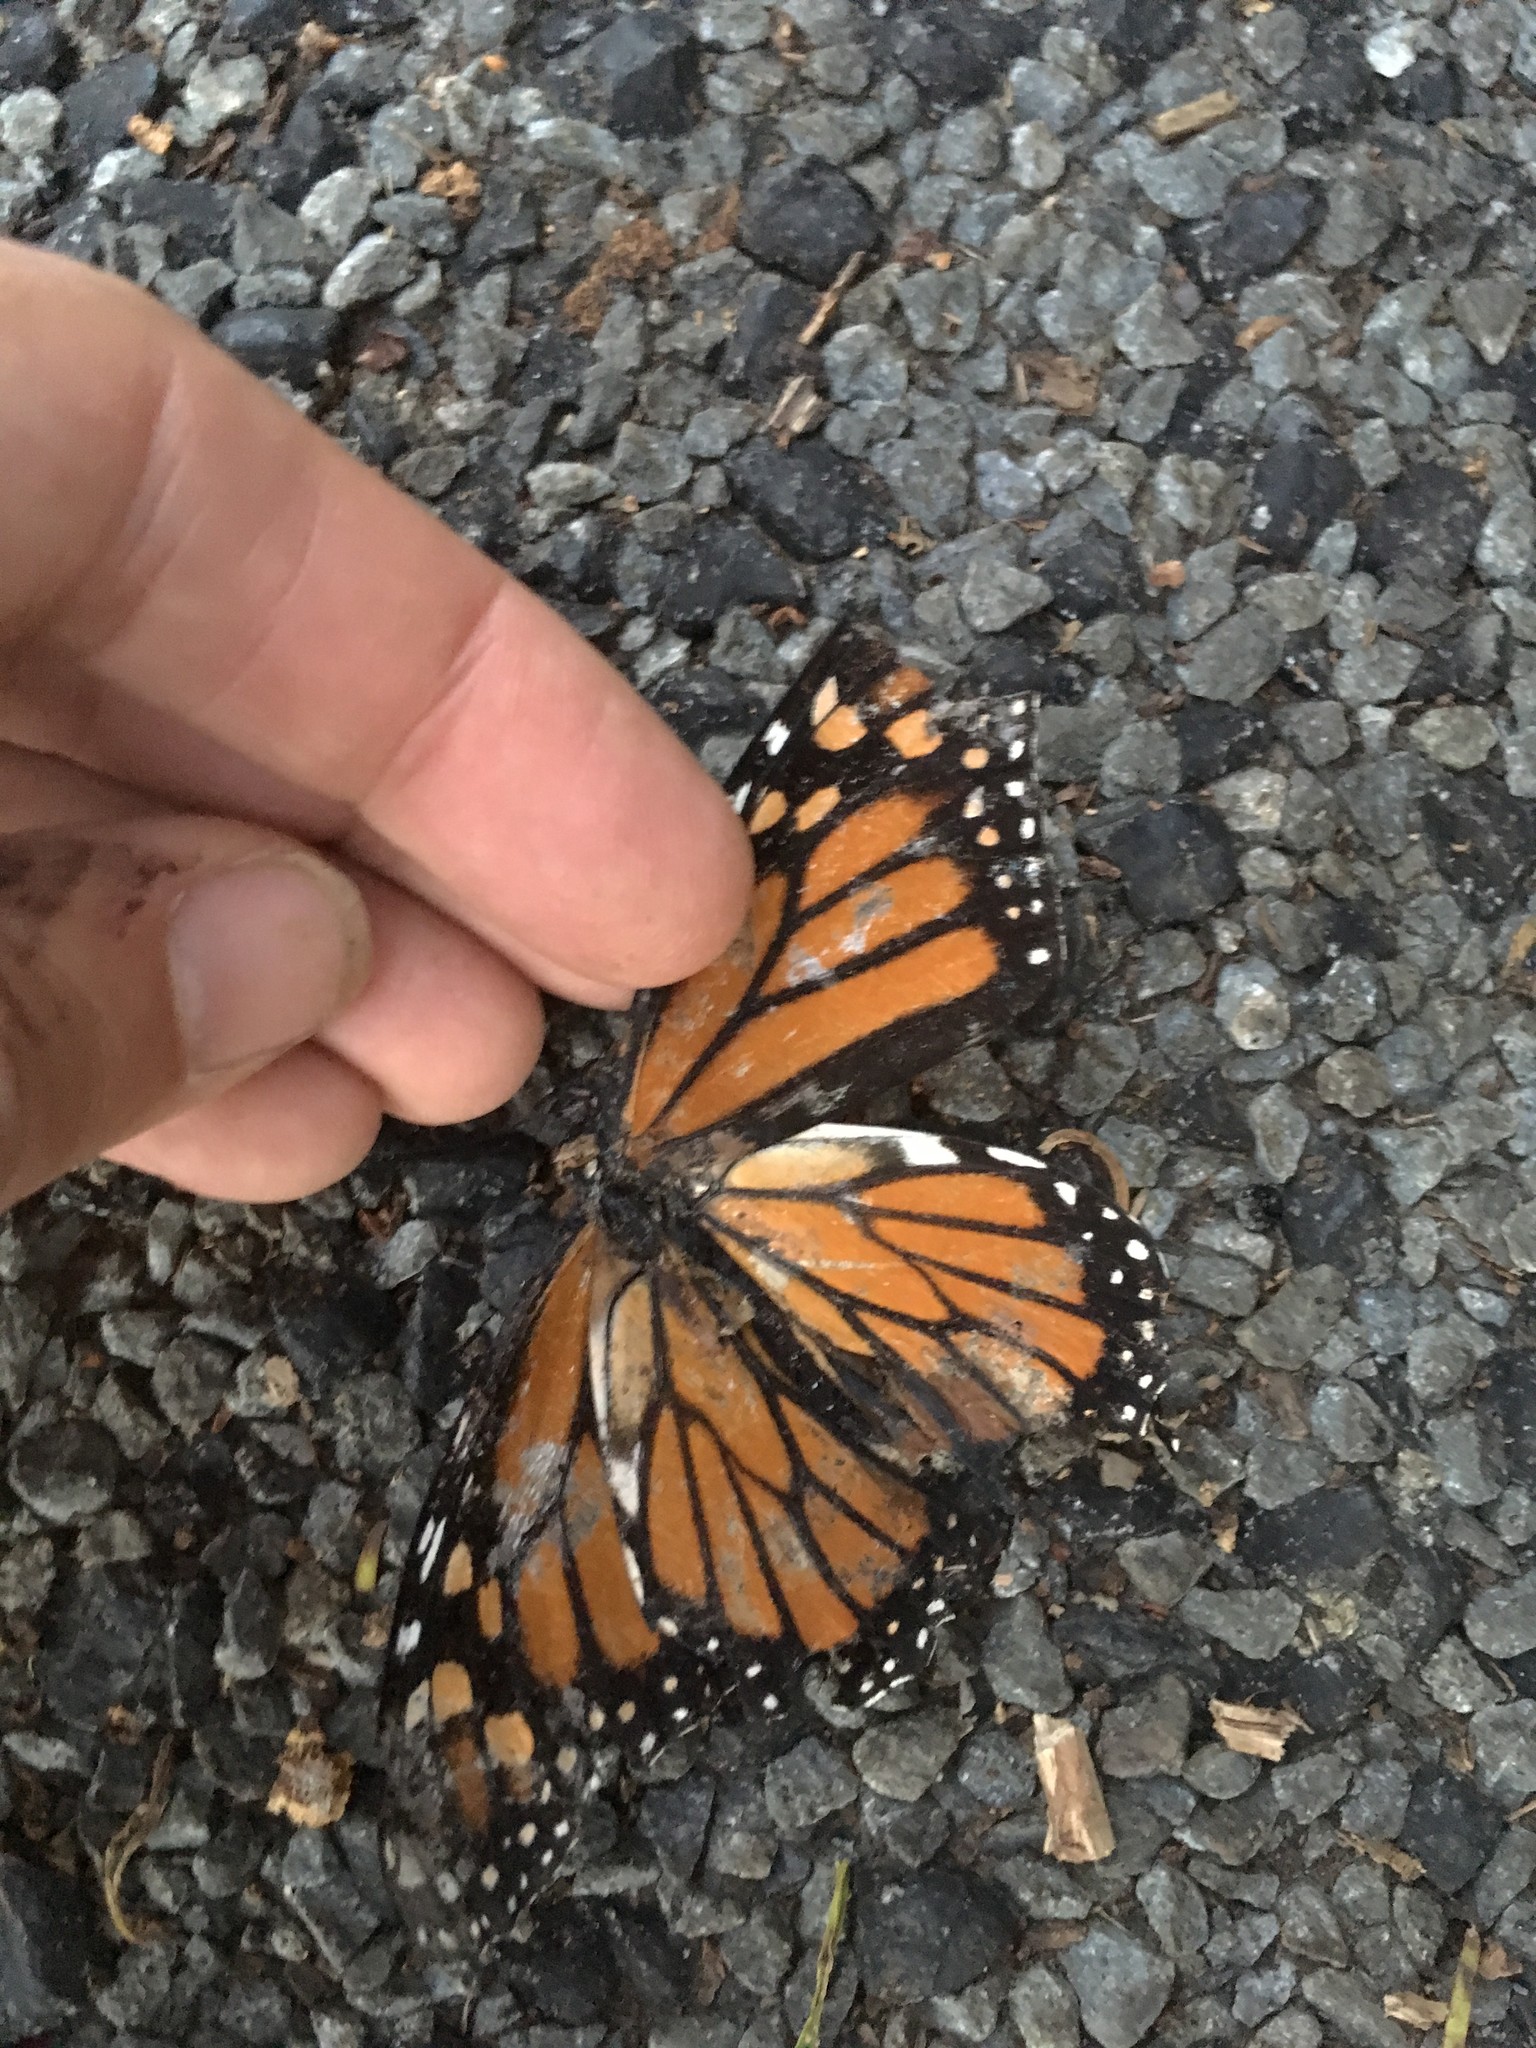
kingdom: Animalia
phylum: Arthropoda
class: Insecta
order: Lepidoptera
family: Nymphalidae
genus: Danaus
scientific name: Danaus plexippus
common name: Monarch
